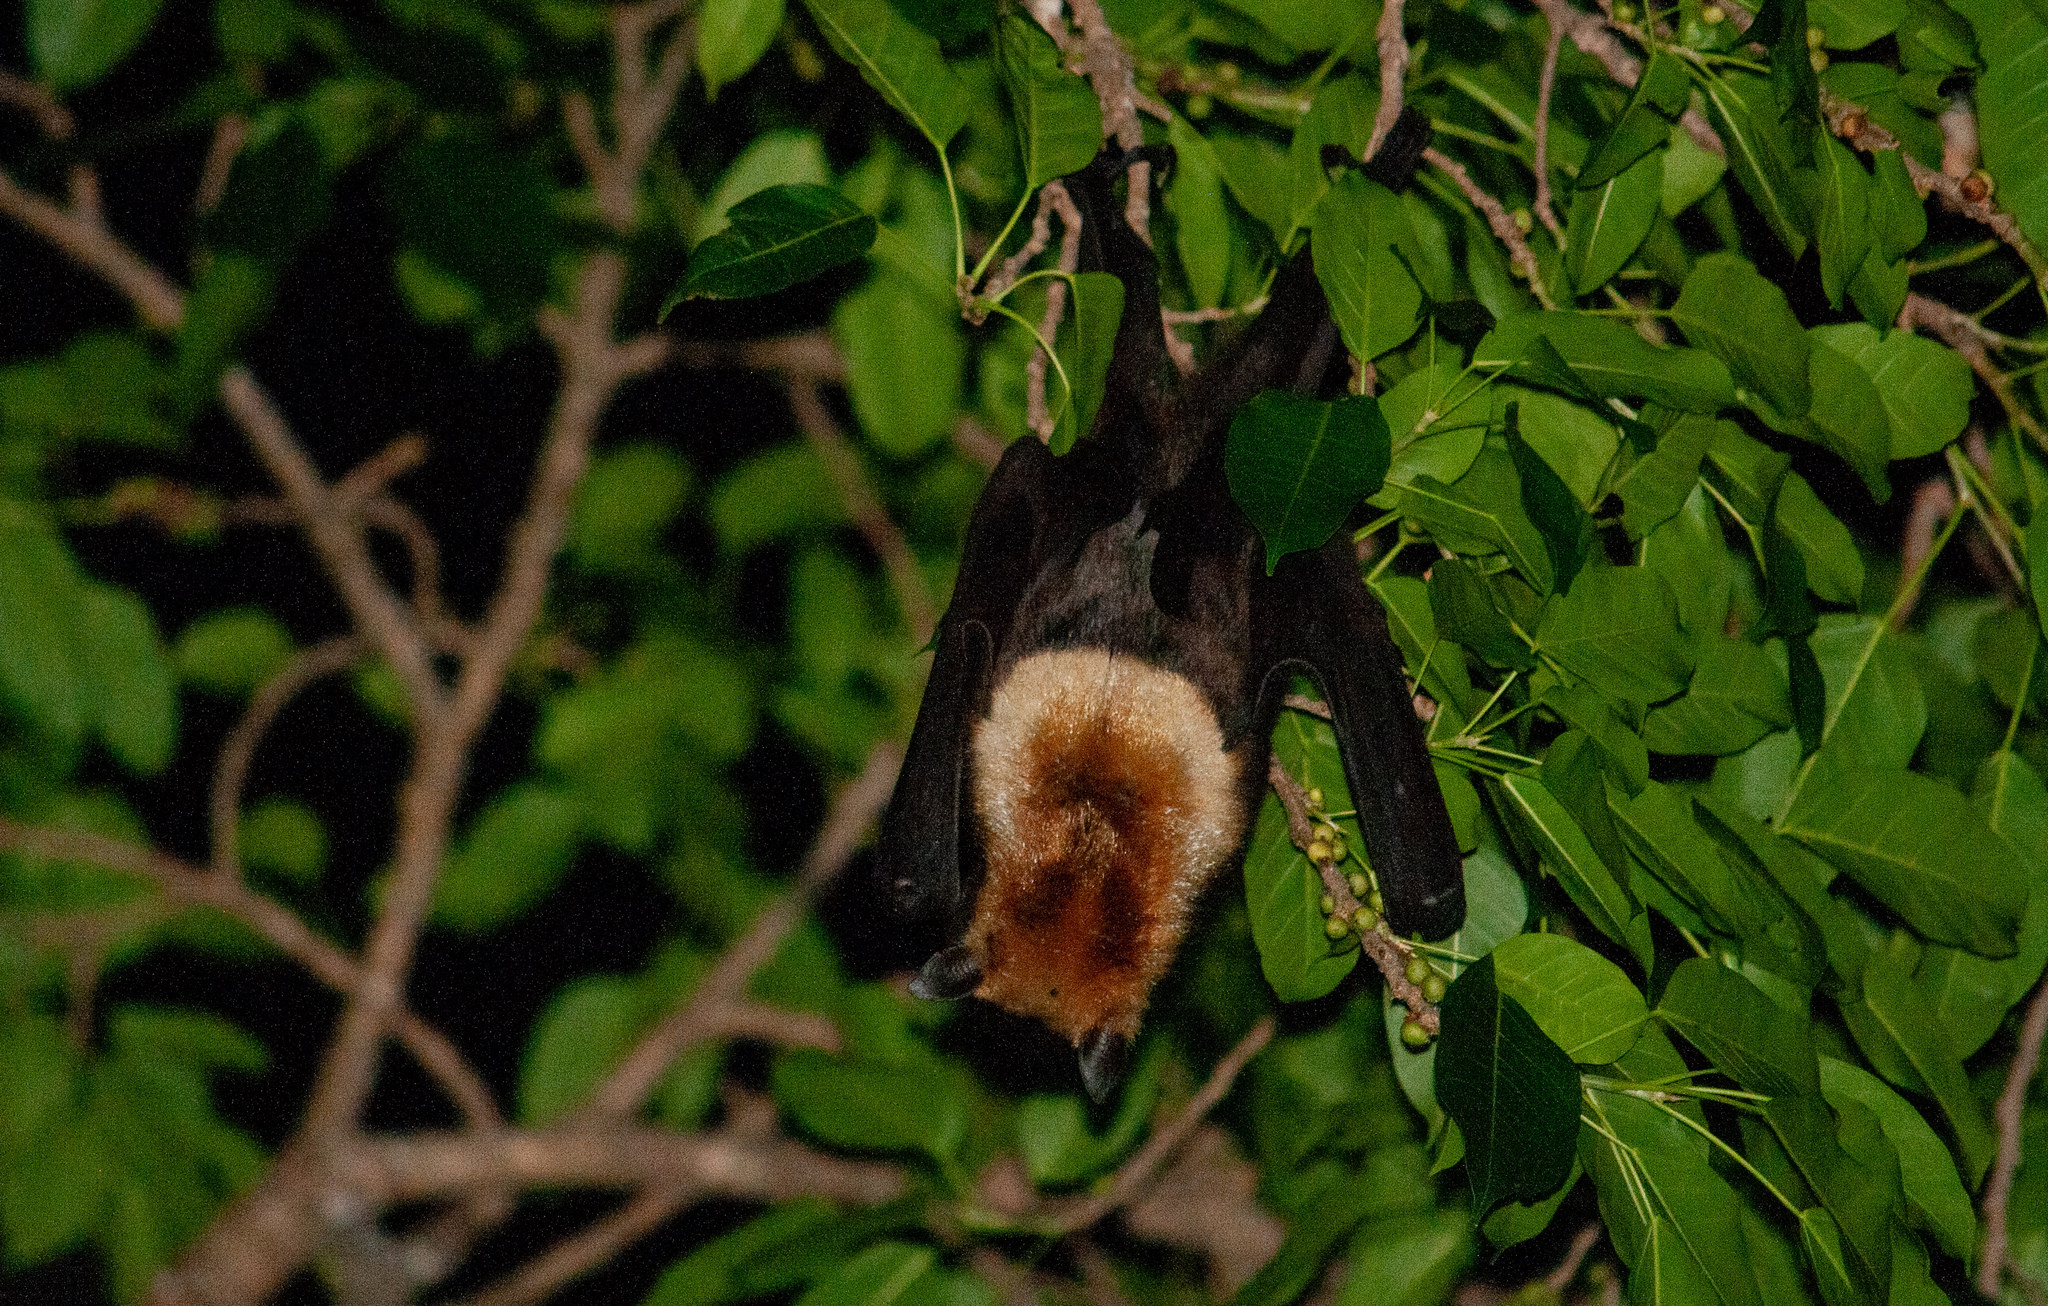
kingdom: Animalia
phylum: Chordata
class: Mammalia
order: Chiroptera
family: Pteropodidae
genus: Pteropus
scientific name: Pteropus conspicillatus
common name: Spectacled flying fox
